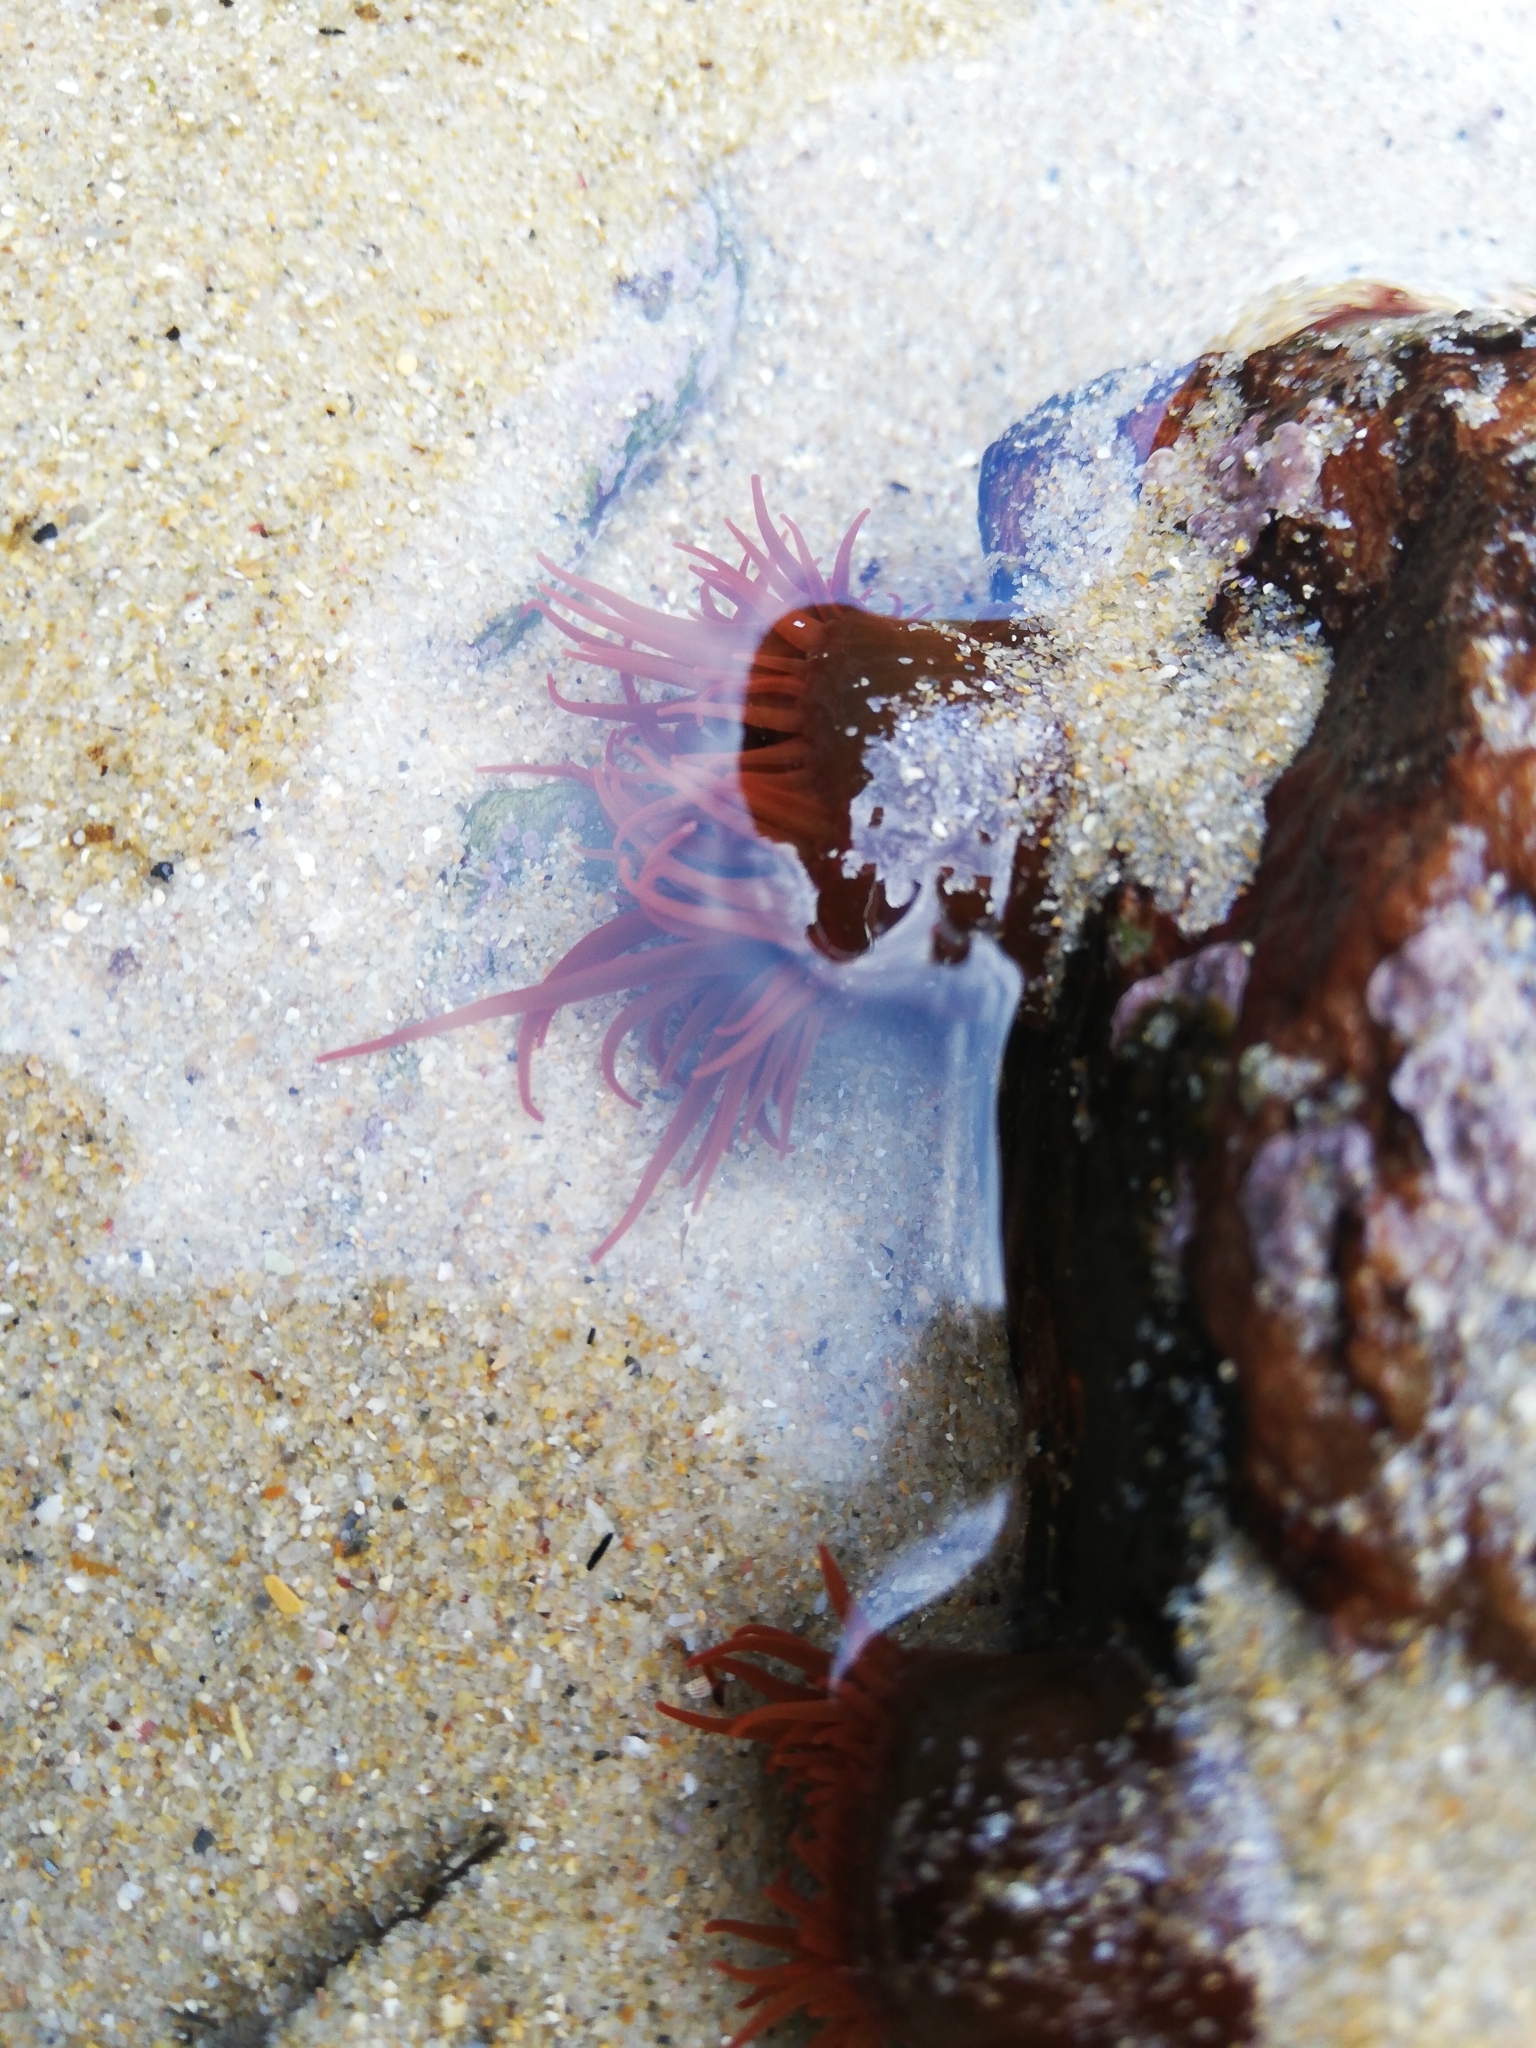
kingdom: Animalia
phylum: Cnidaria
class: Anthozoa
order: Actiniaria
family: Actiniidae
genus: Actinia
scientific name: Actinia ebhayiensis
